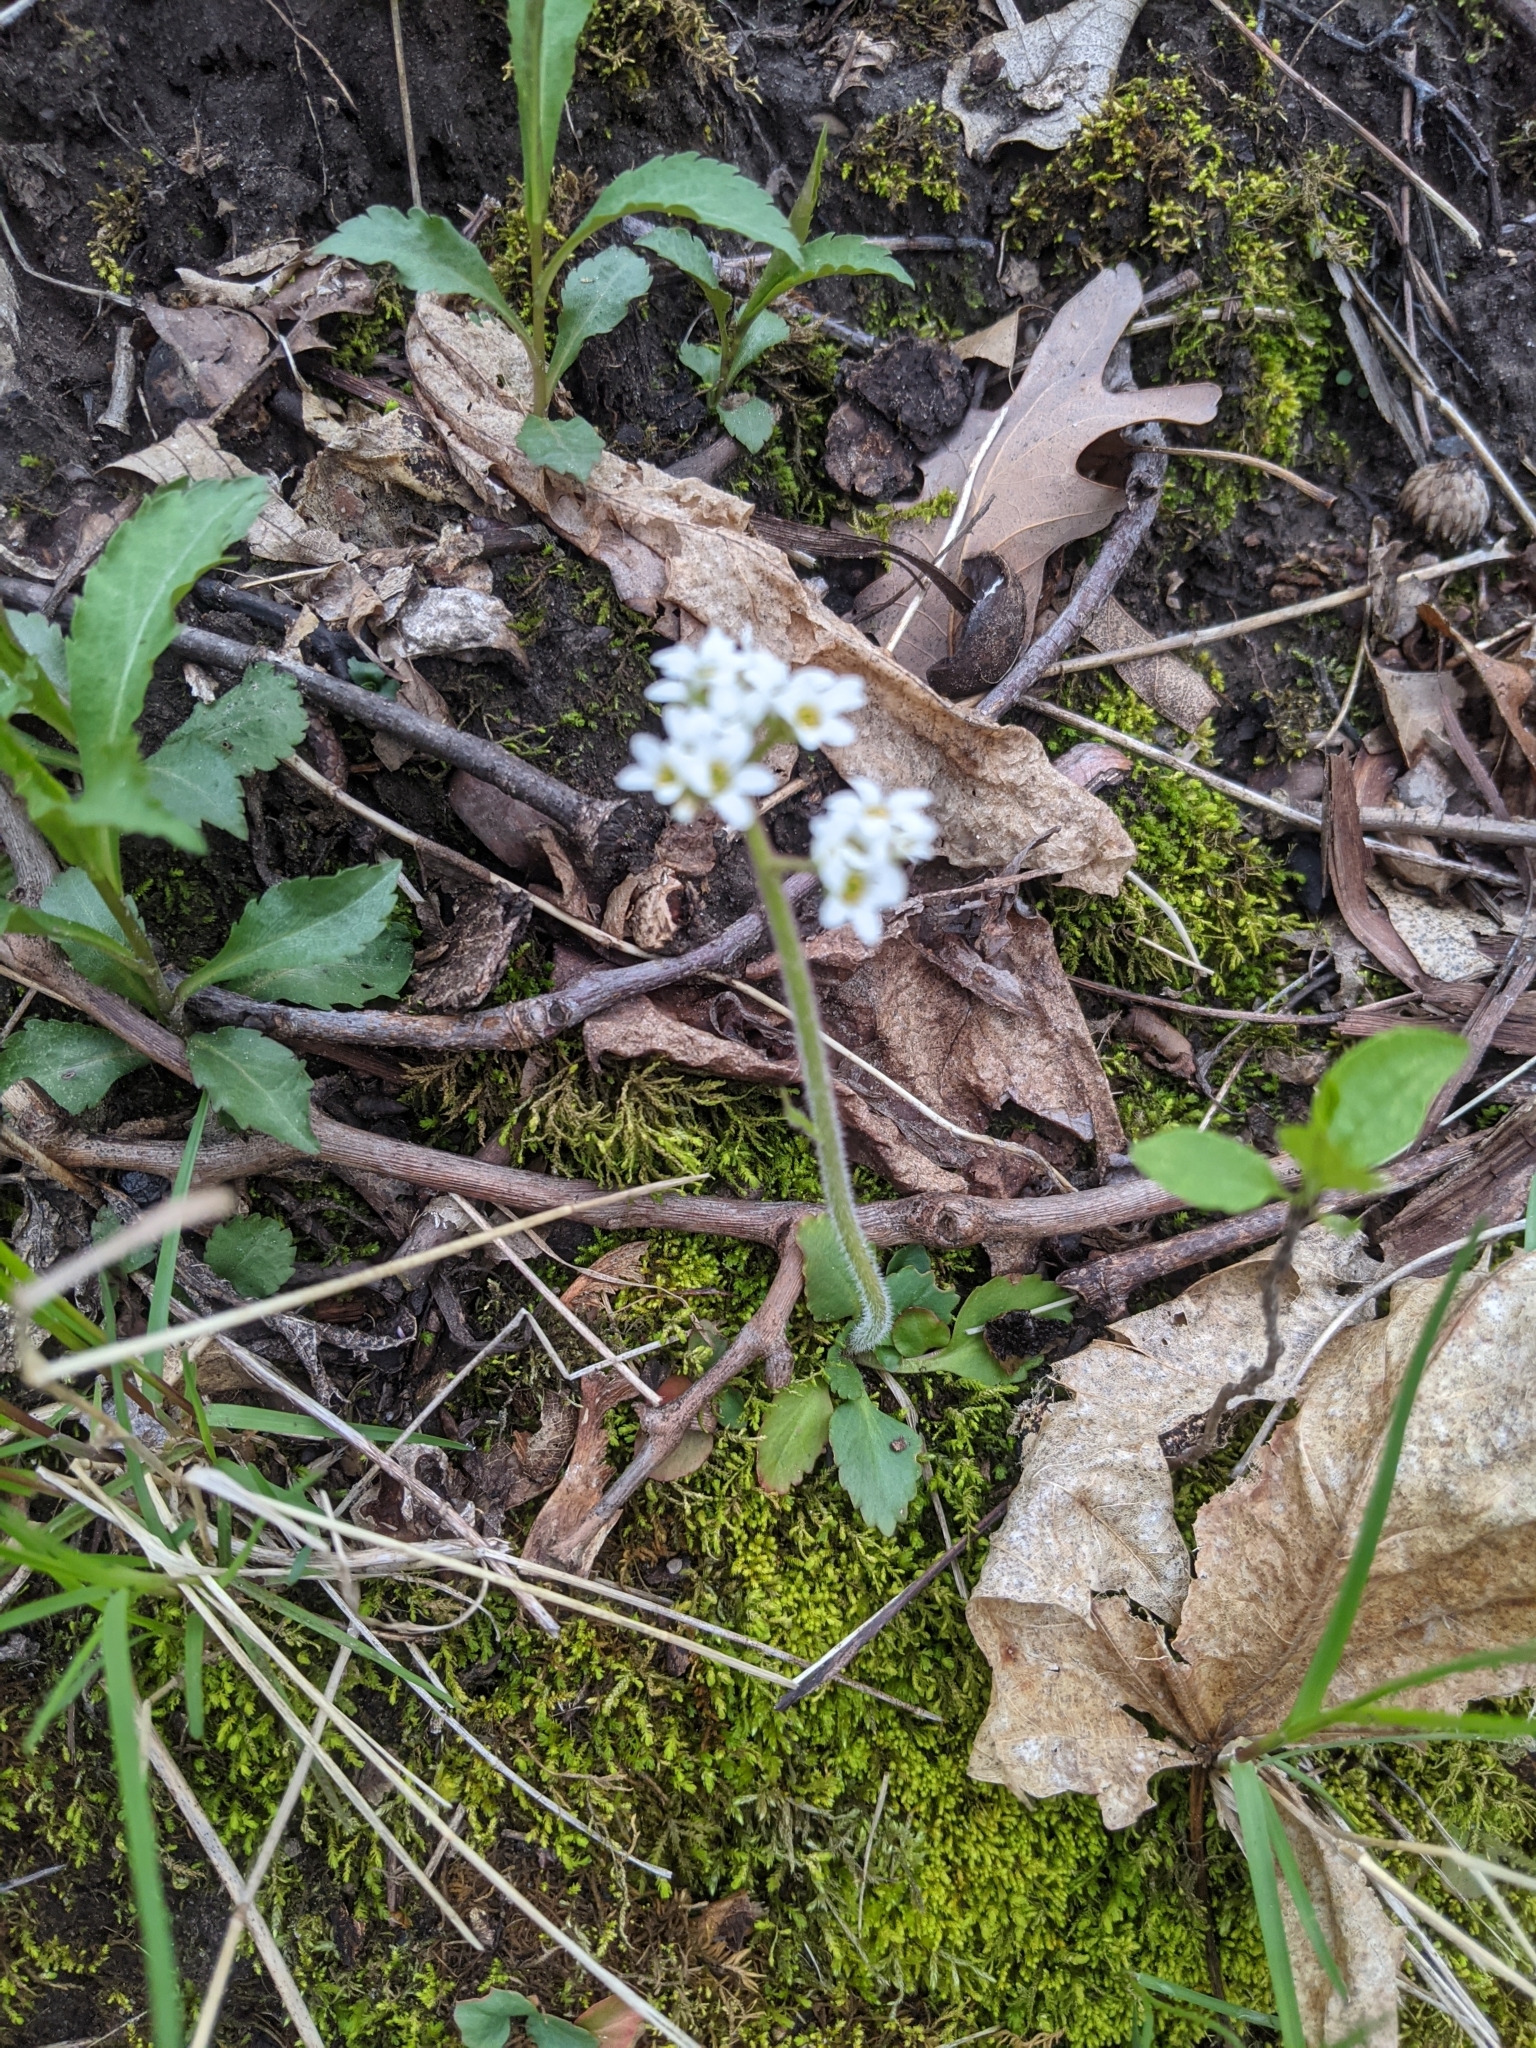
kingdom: Plantae
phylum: Tracheophyta
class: Magnoliopsida
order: Saxifragales
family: Saxifragaceae
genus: Micranthes
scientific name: Micranthes virginiensis
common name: Early saxifrage
